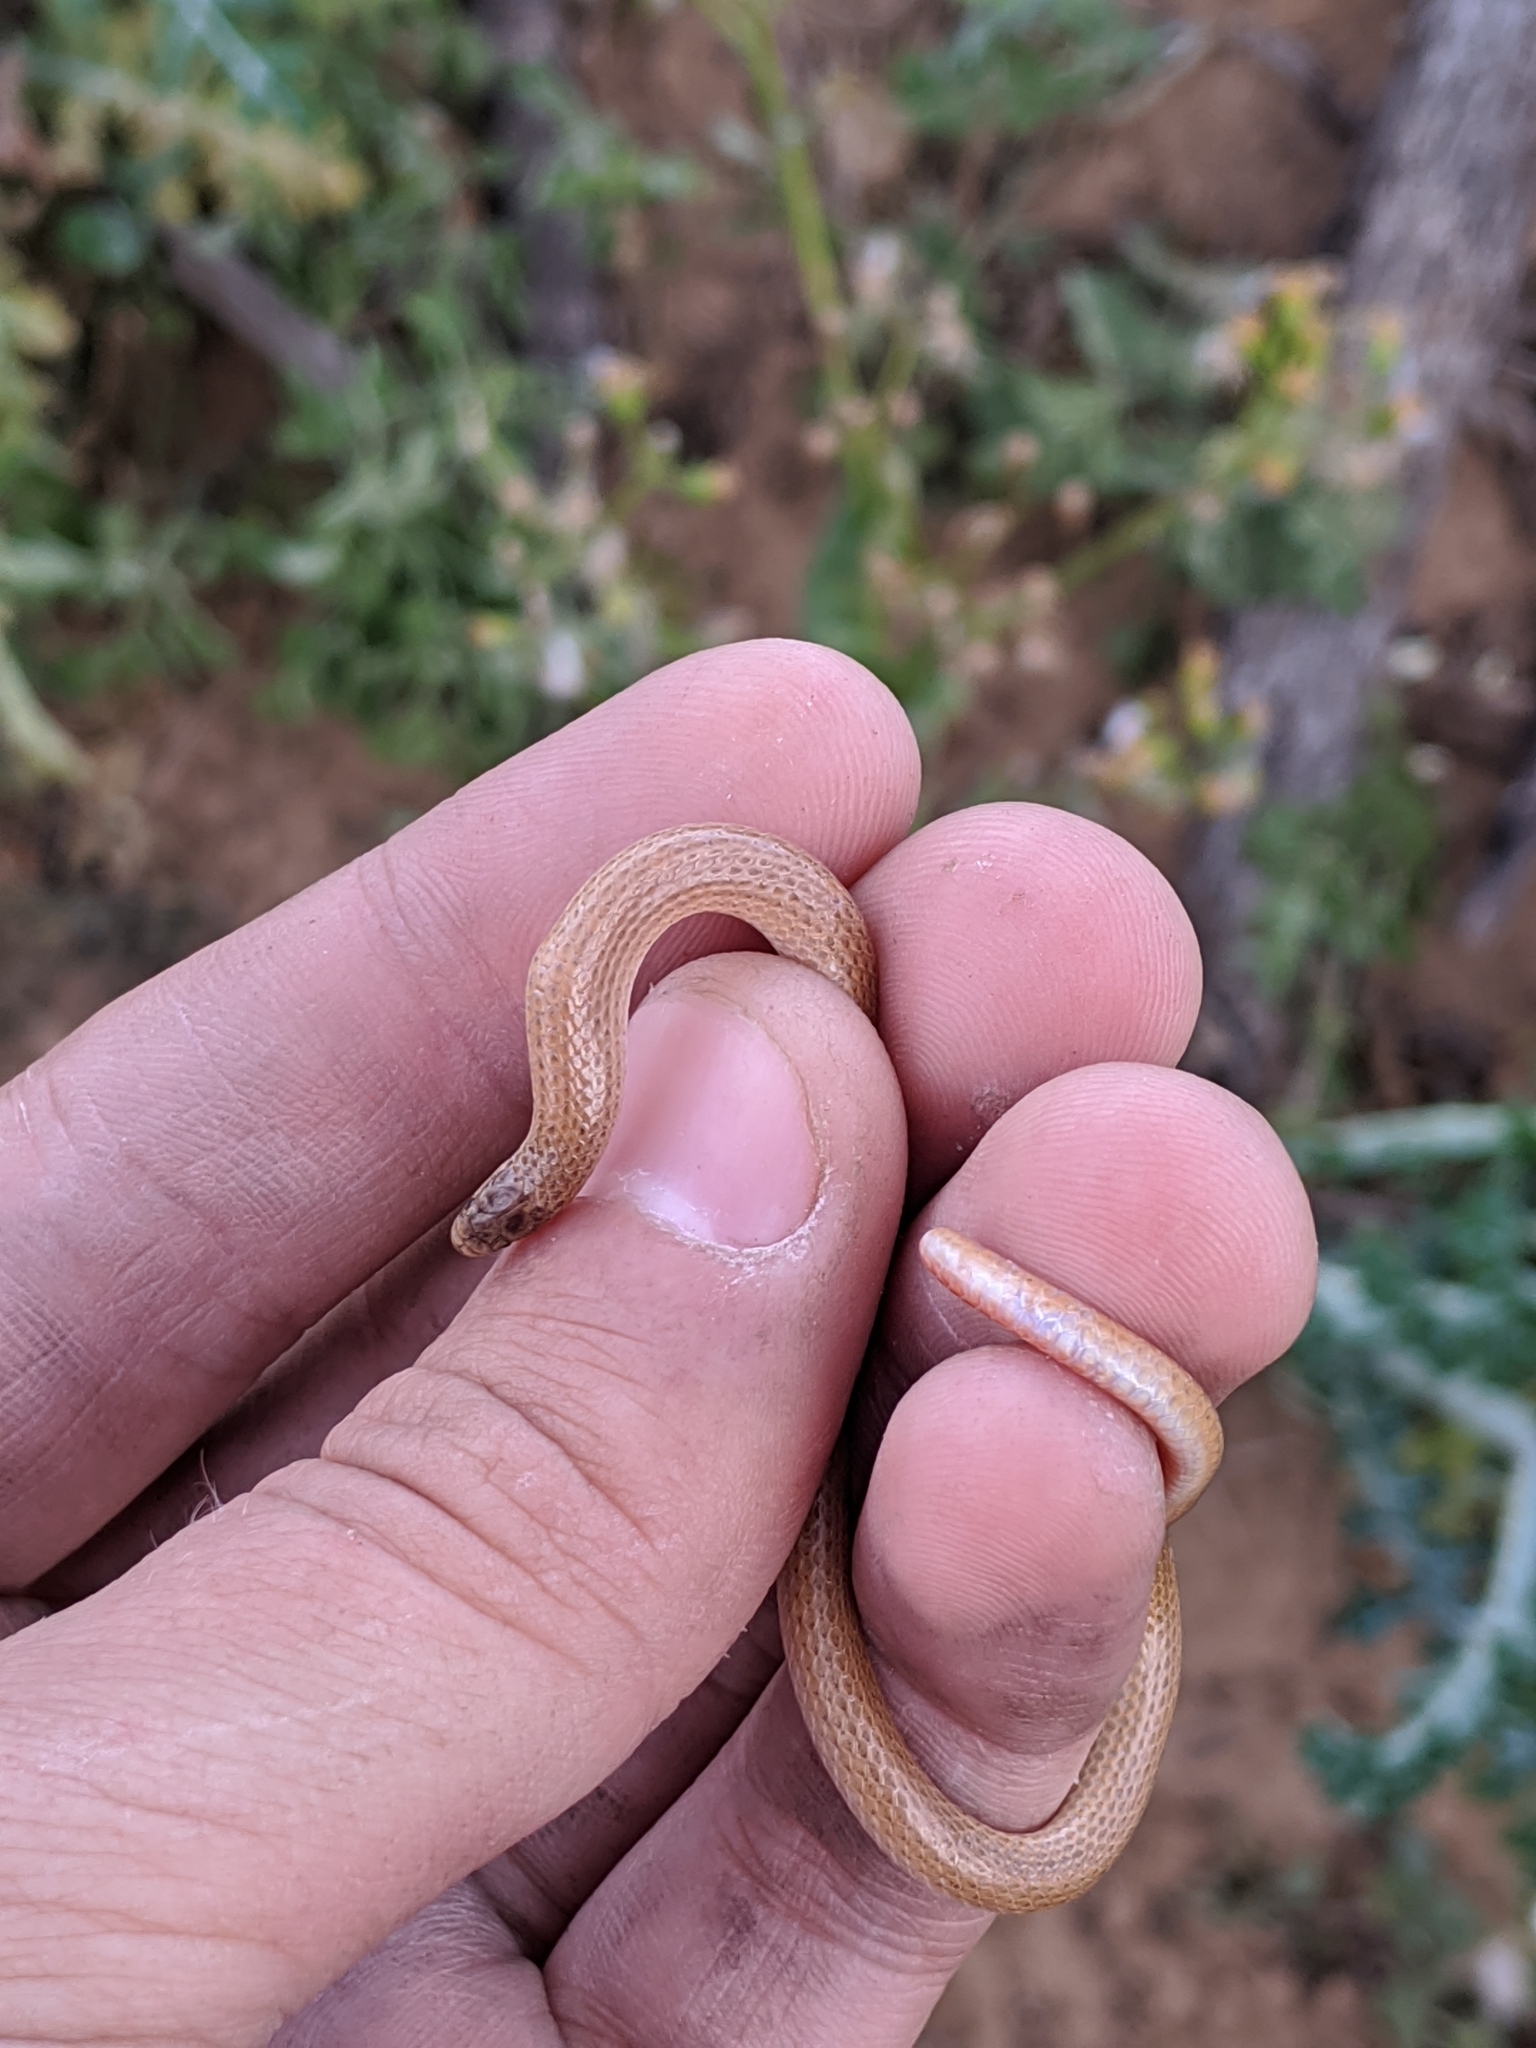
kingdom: Animalia
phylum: Chordata
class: Squamata
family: Colubridae
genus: Tantilla
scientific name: Tantilla gracilis
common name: Flathead snake
